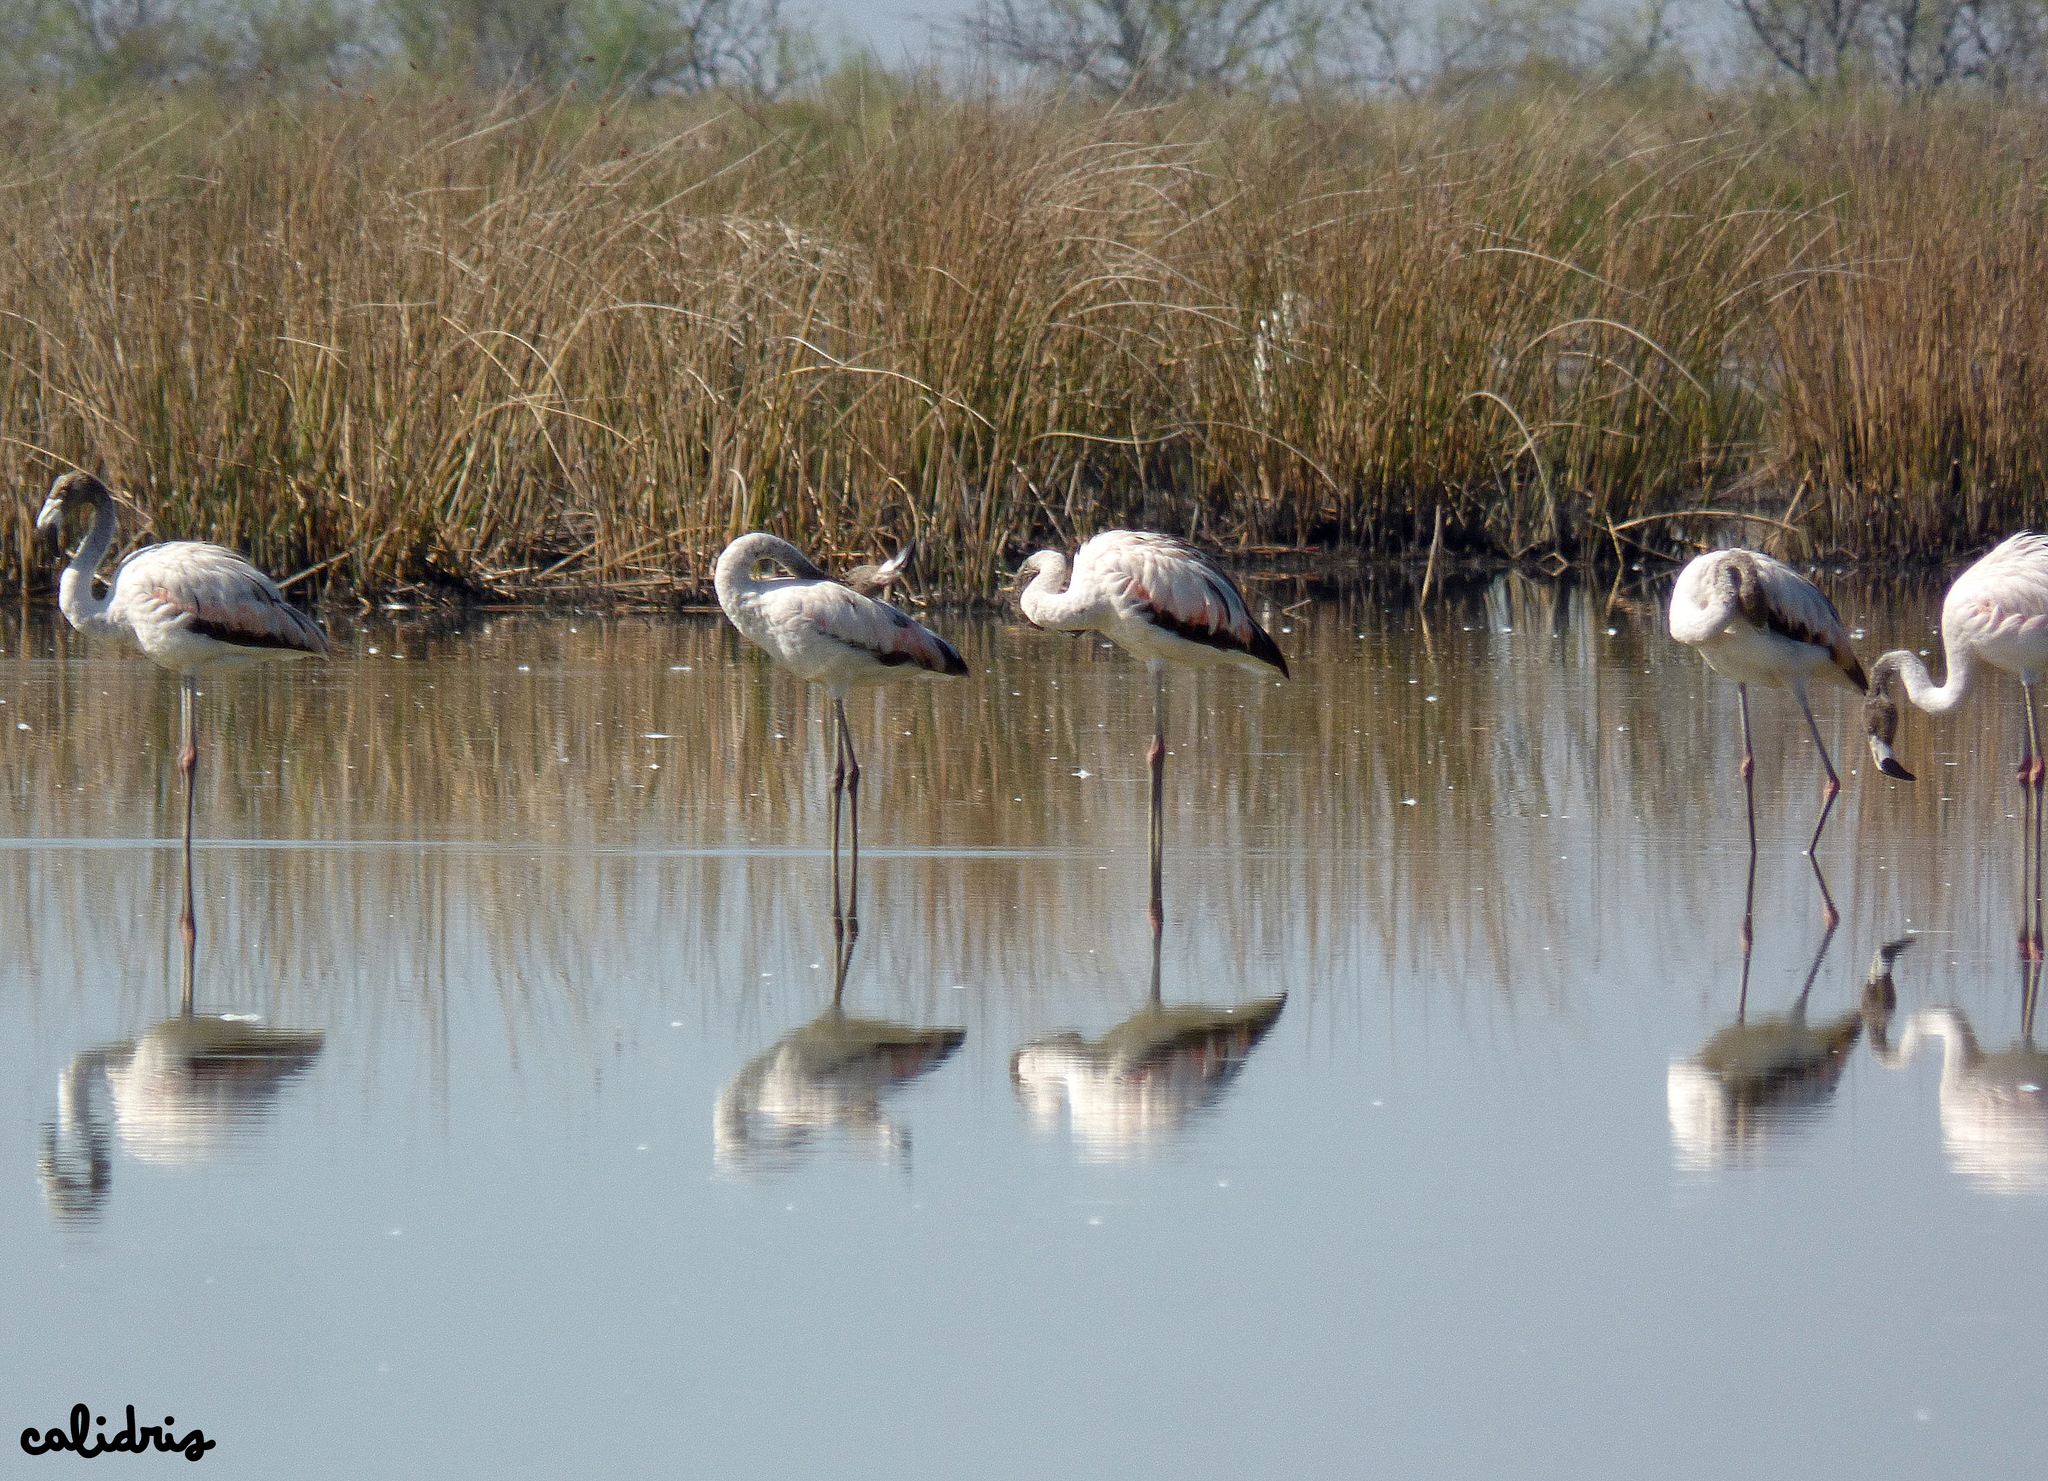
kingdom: Animalia
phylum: Chordata
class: Aves
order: Phoenicopteriformes
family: Phoenicopteridae
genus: Phoenicopterus
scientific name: Phoenicopterus chilensis
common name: Chilean flamingo
